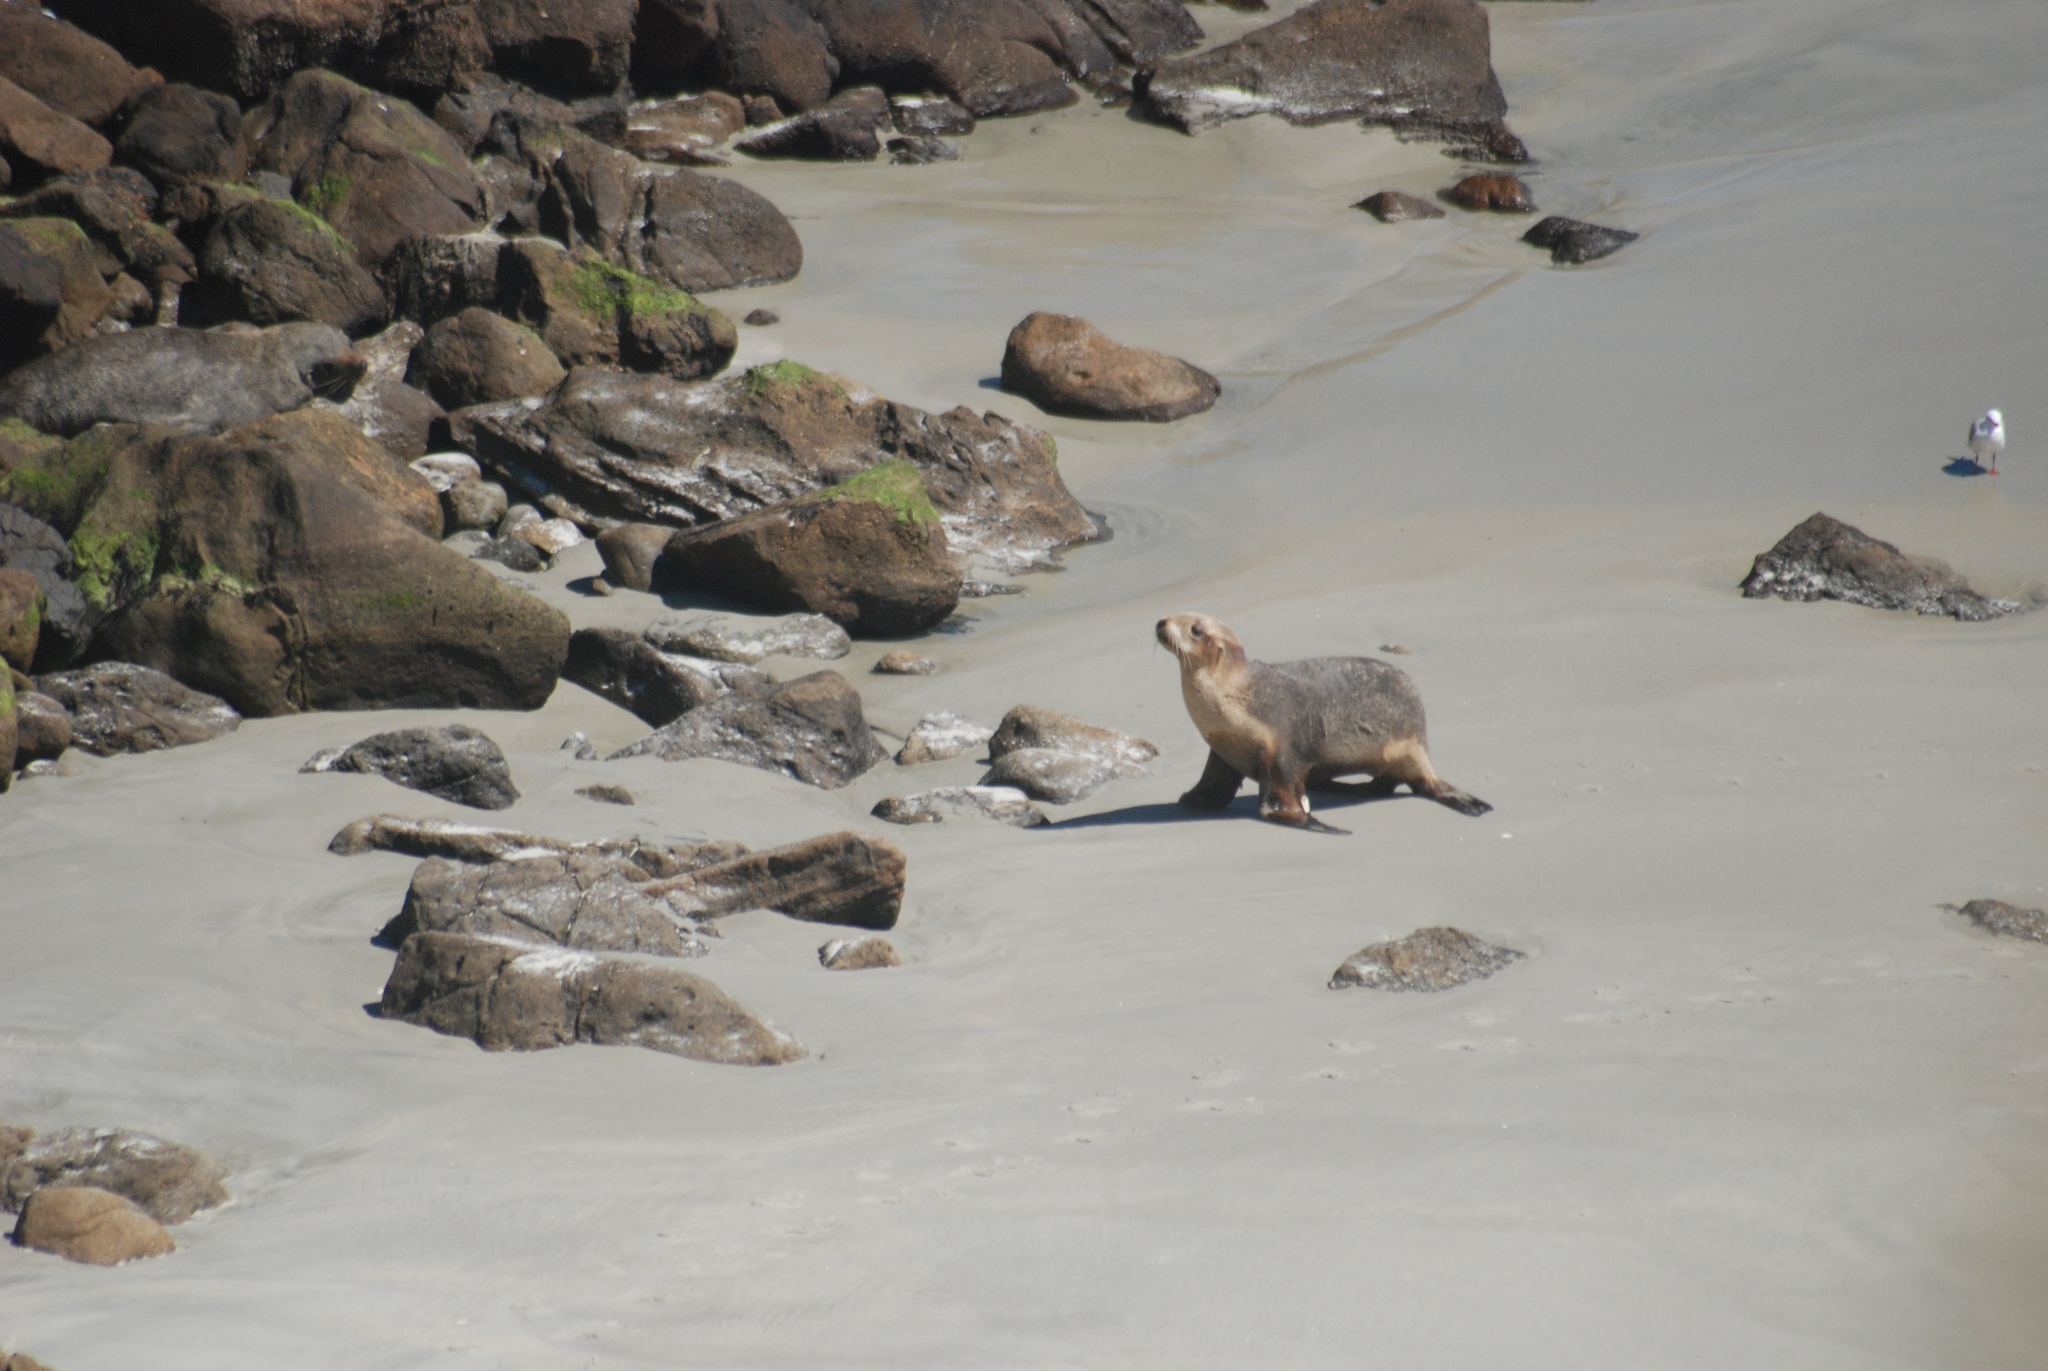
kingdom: Animalia
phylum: Chordata
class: Aves
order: Charadriiformes
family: Laridae
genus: Chroicocephalus
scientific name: Chroicocephalus novaehollandiae
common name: Silver gull
